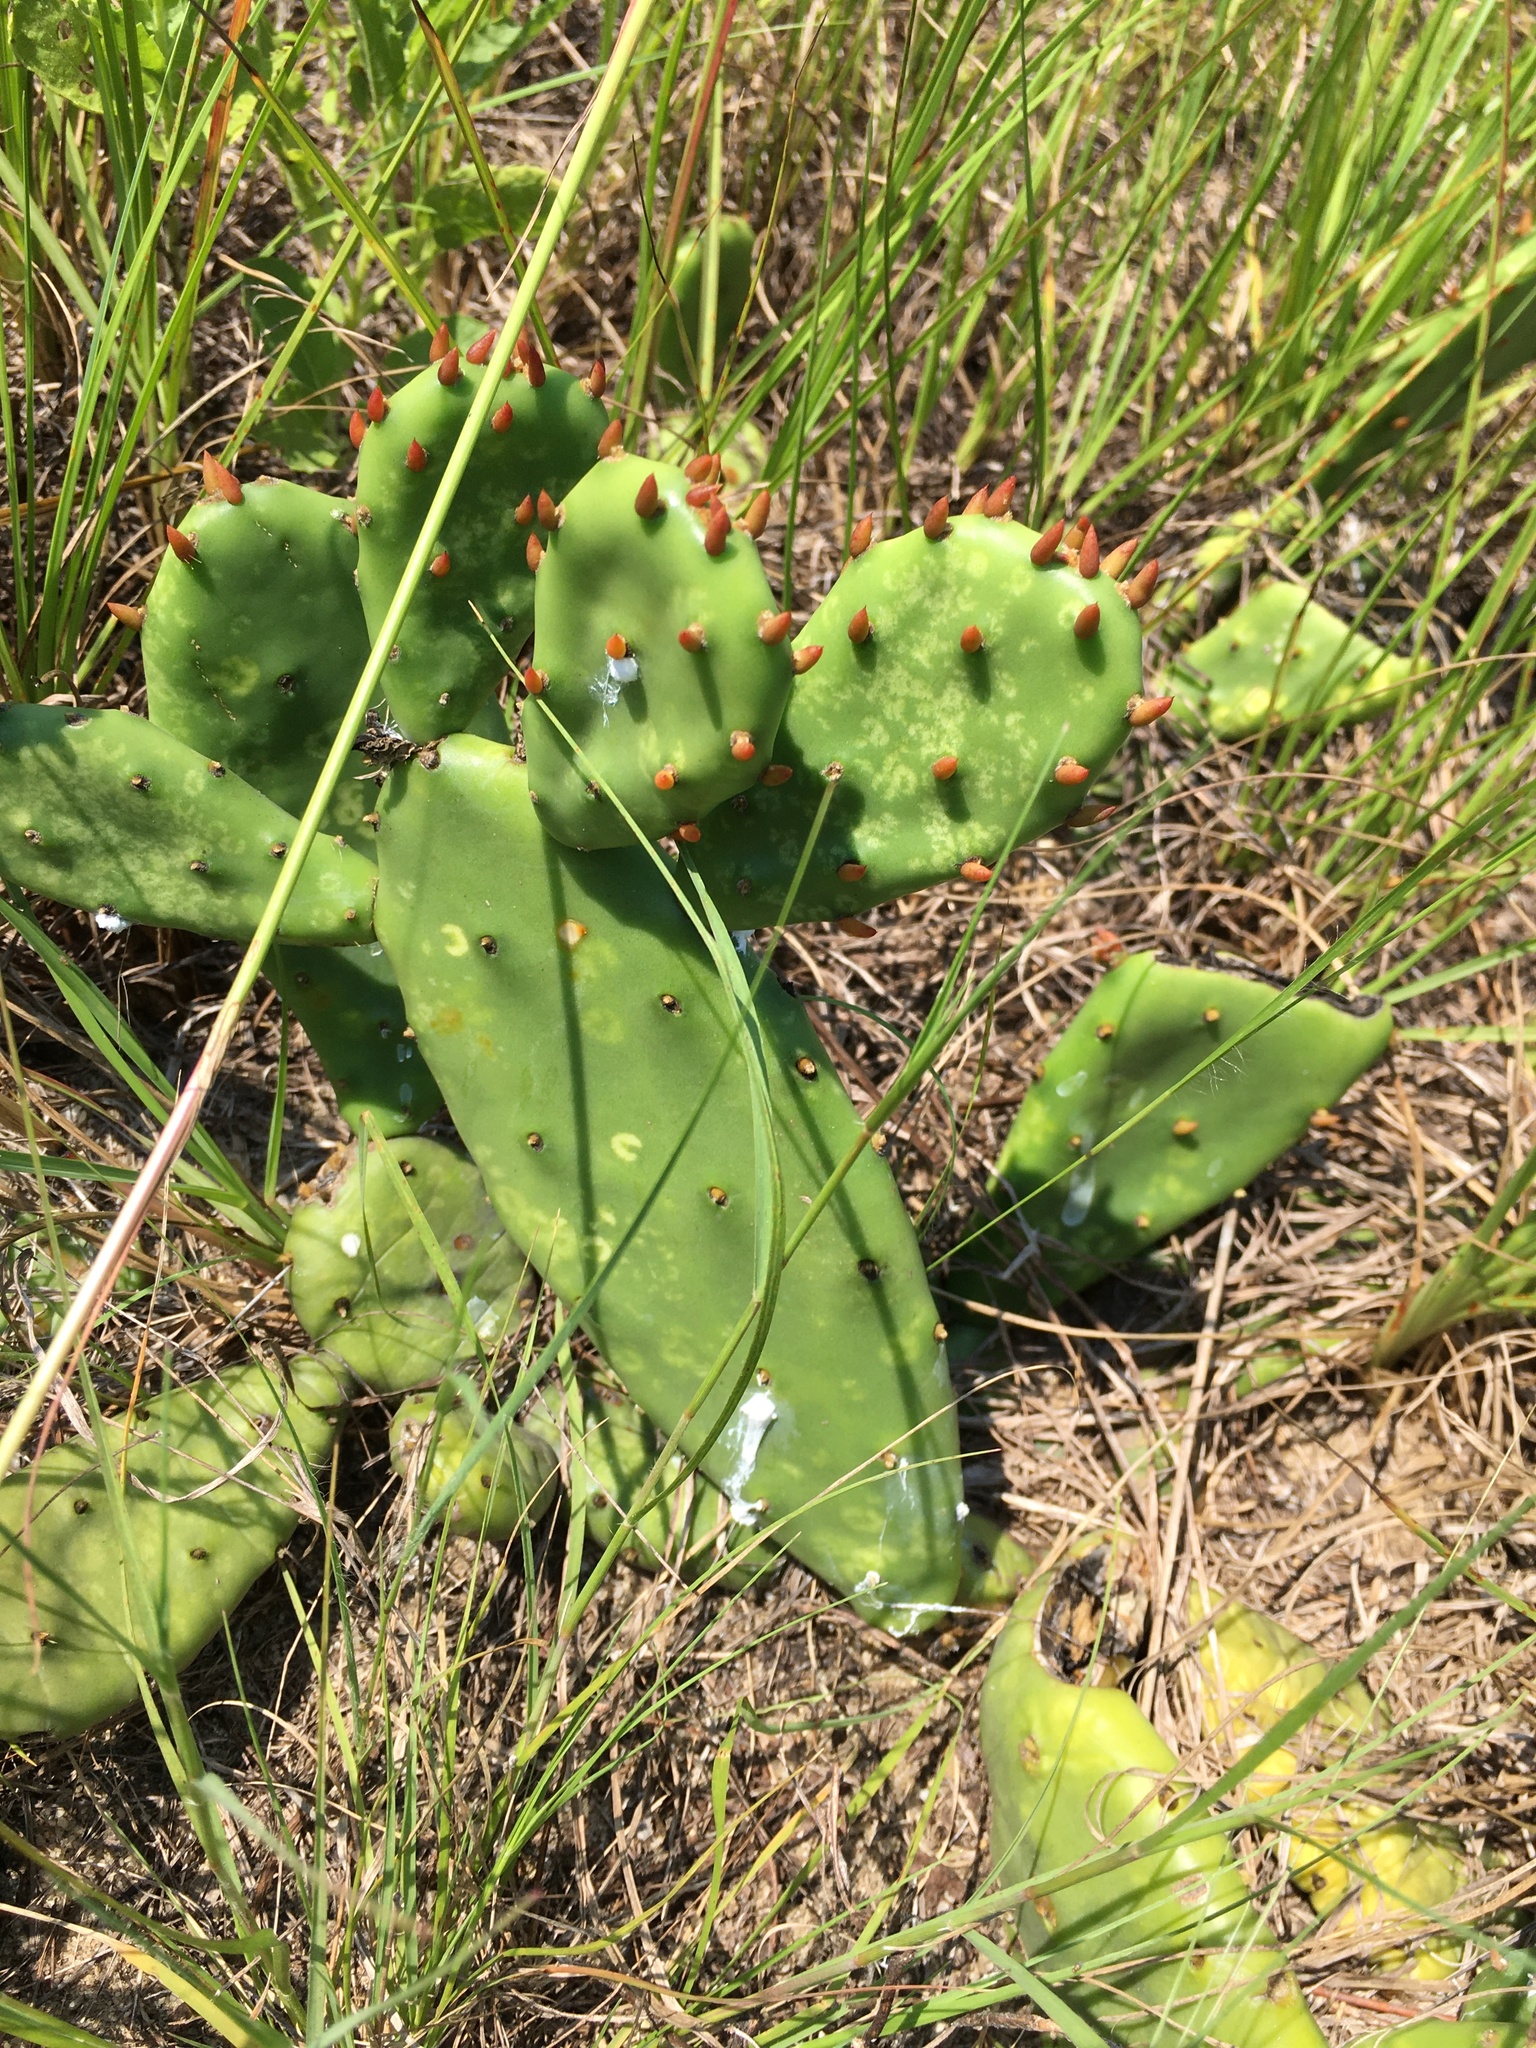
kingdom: Plantae
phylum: Tracheophyta
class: Magnoliopsida
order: Caryophyllales
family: Cactaceae
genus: Opuntia
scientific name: Opuntia mesacantha
